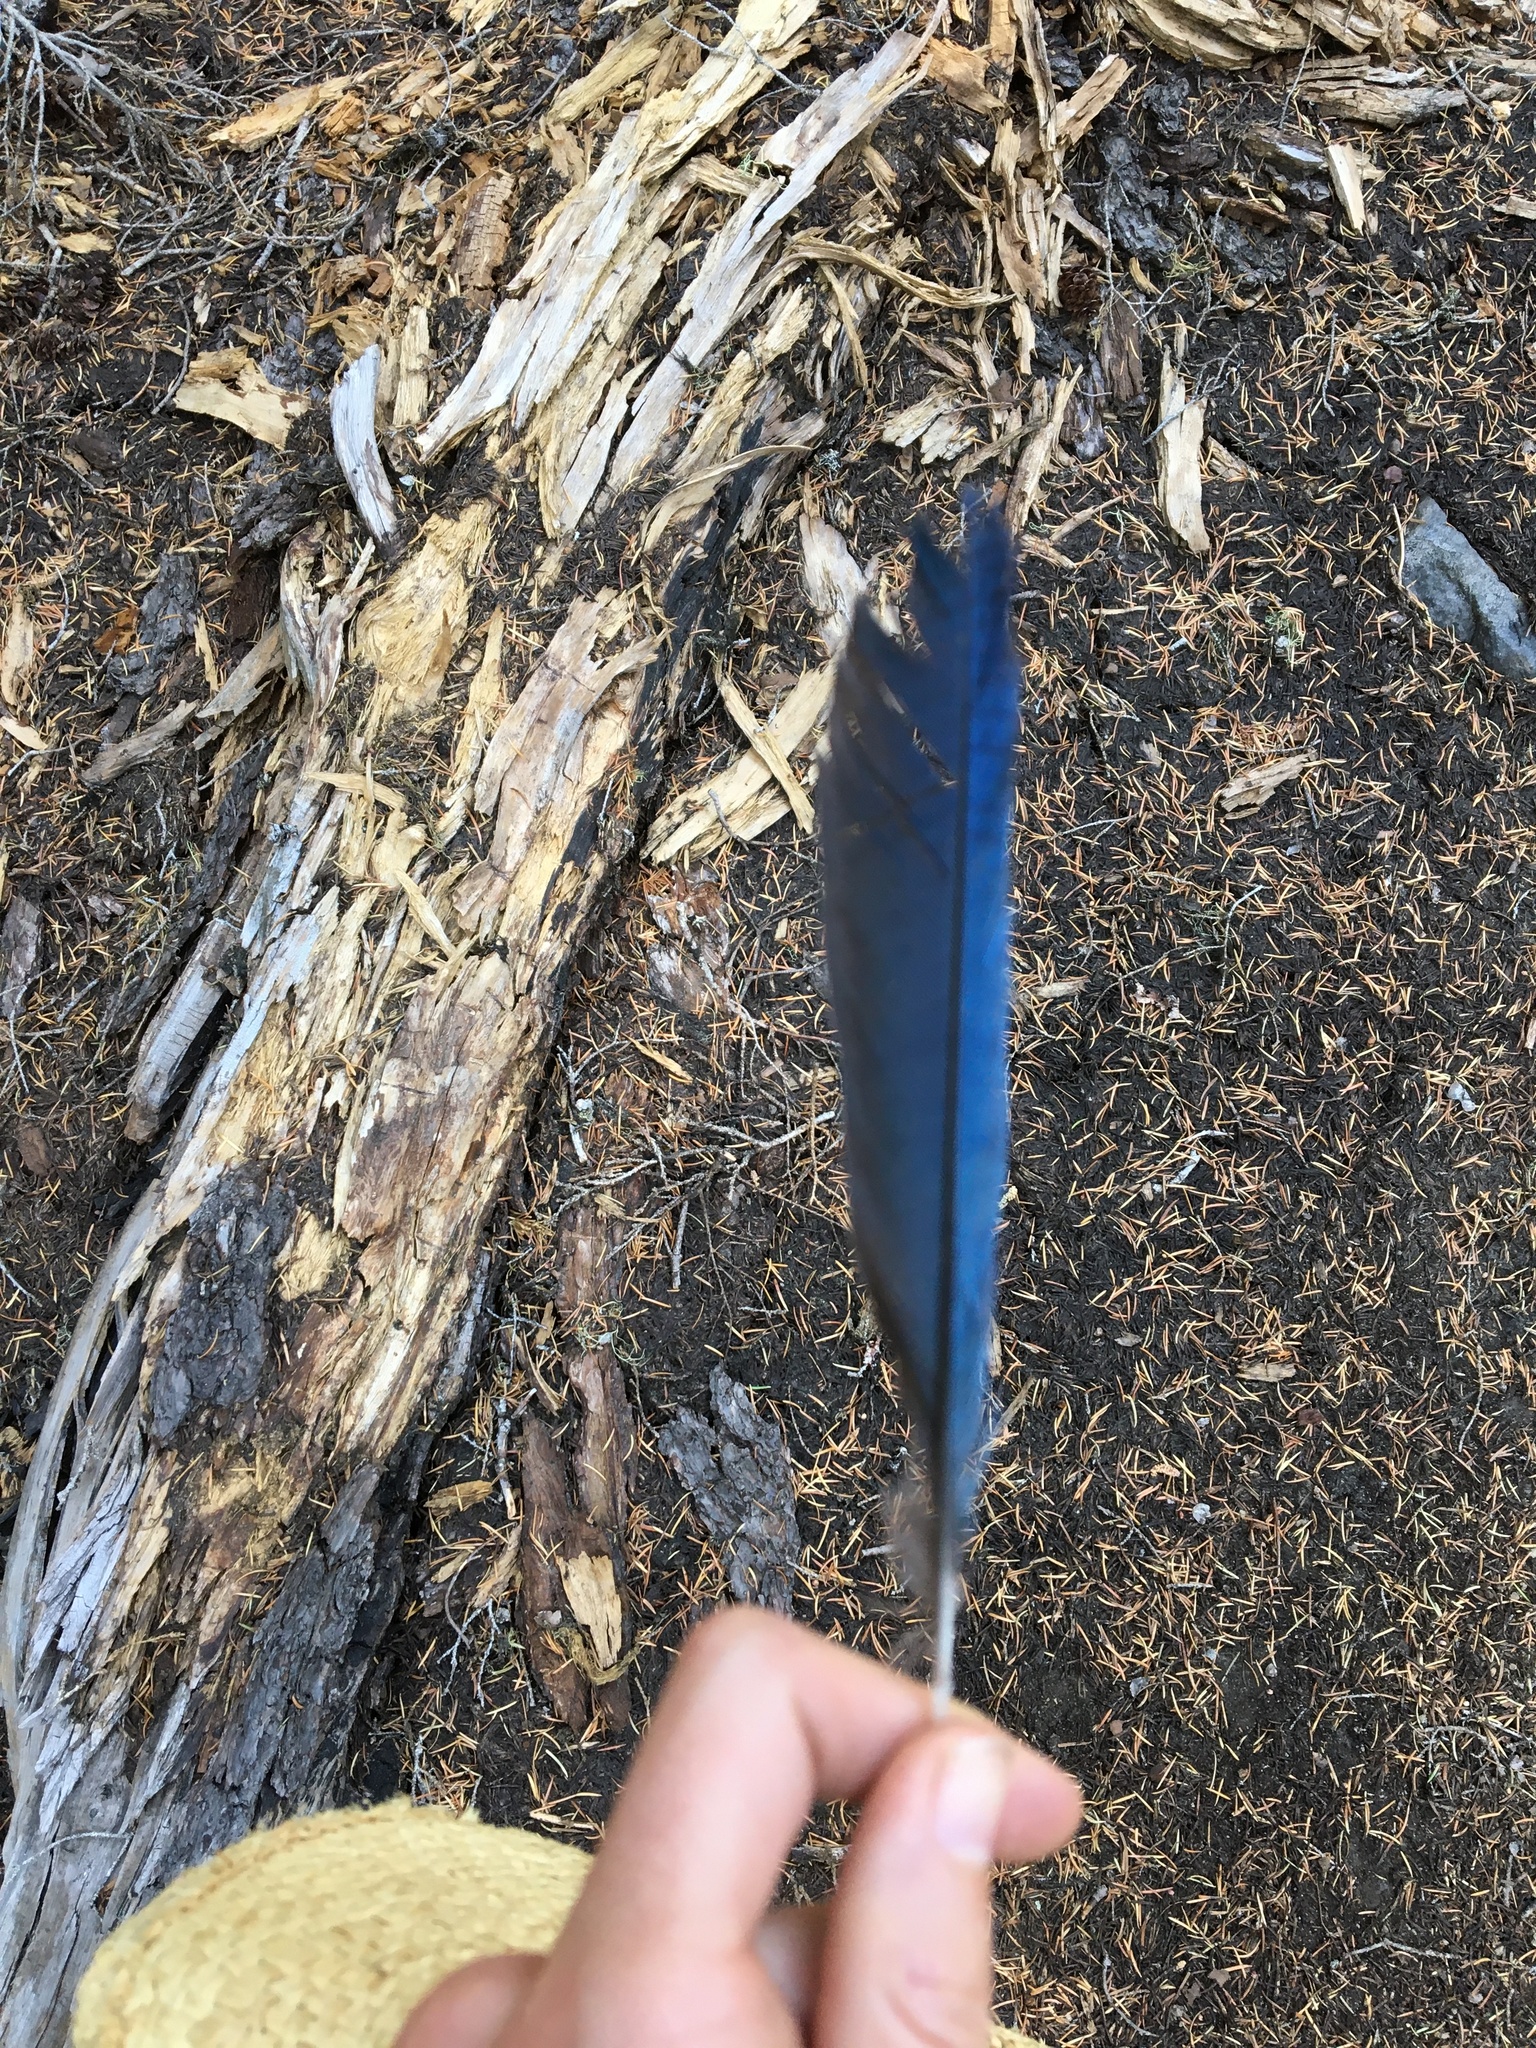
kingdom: Animalia
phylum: Chordata
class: Aves
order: Passeriformes
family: Corvidae
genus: Cyanocitta
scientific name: Cyanocitta stelleri
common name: Steller's jay
